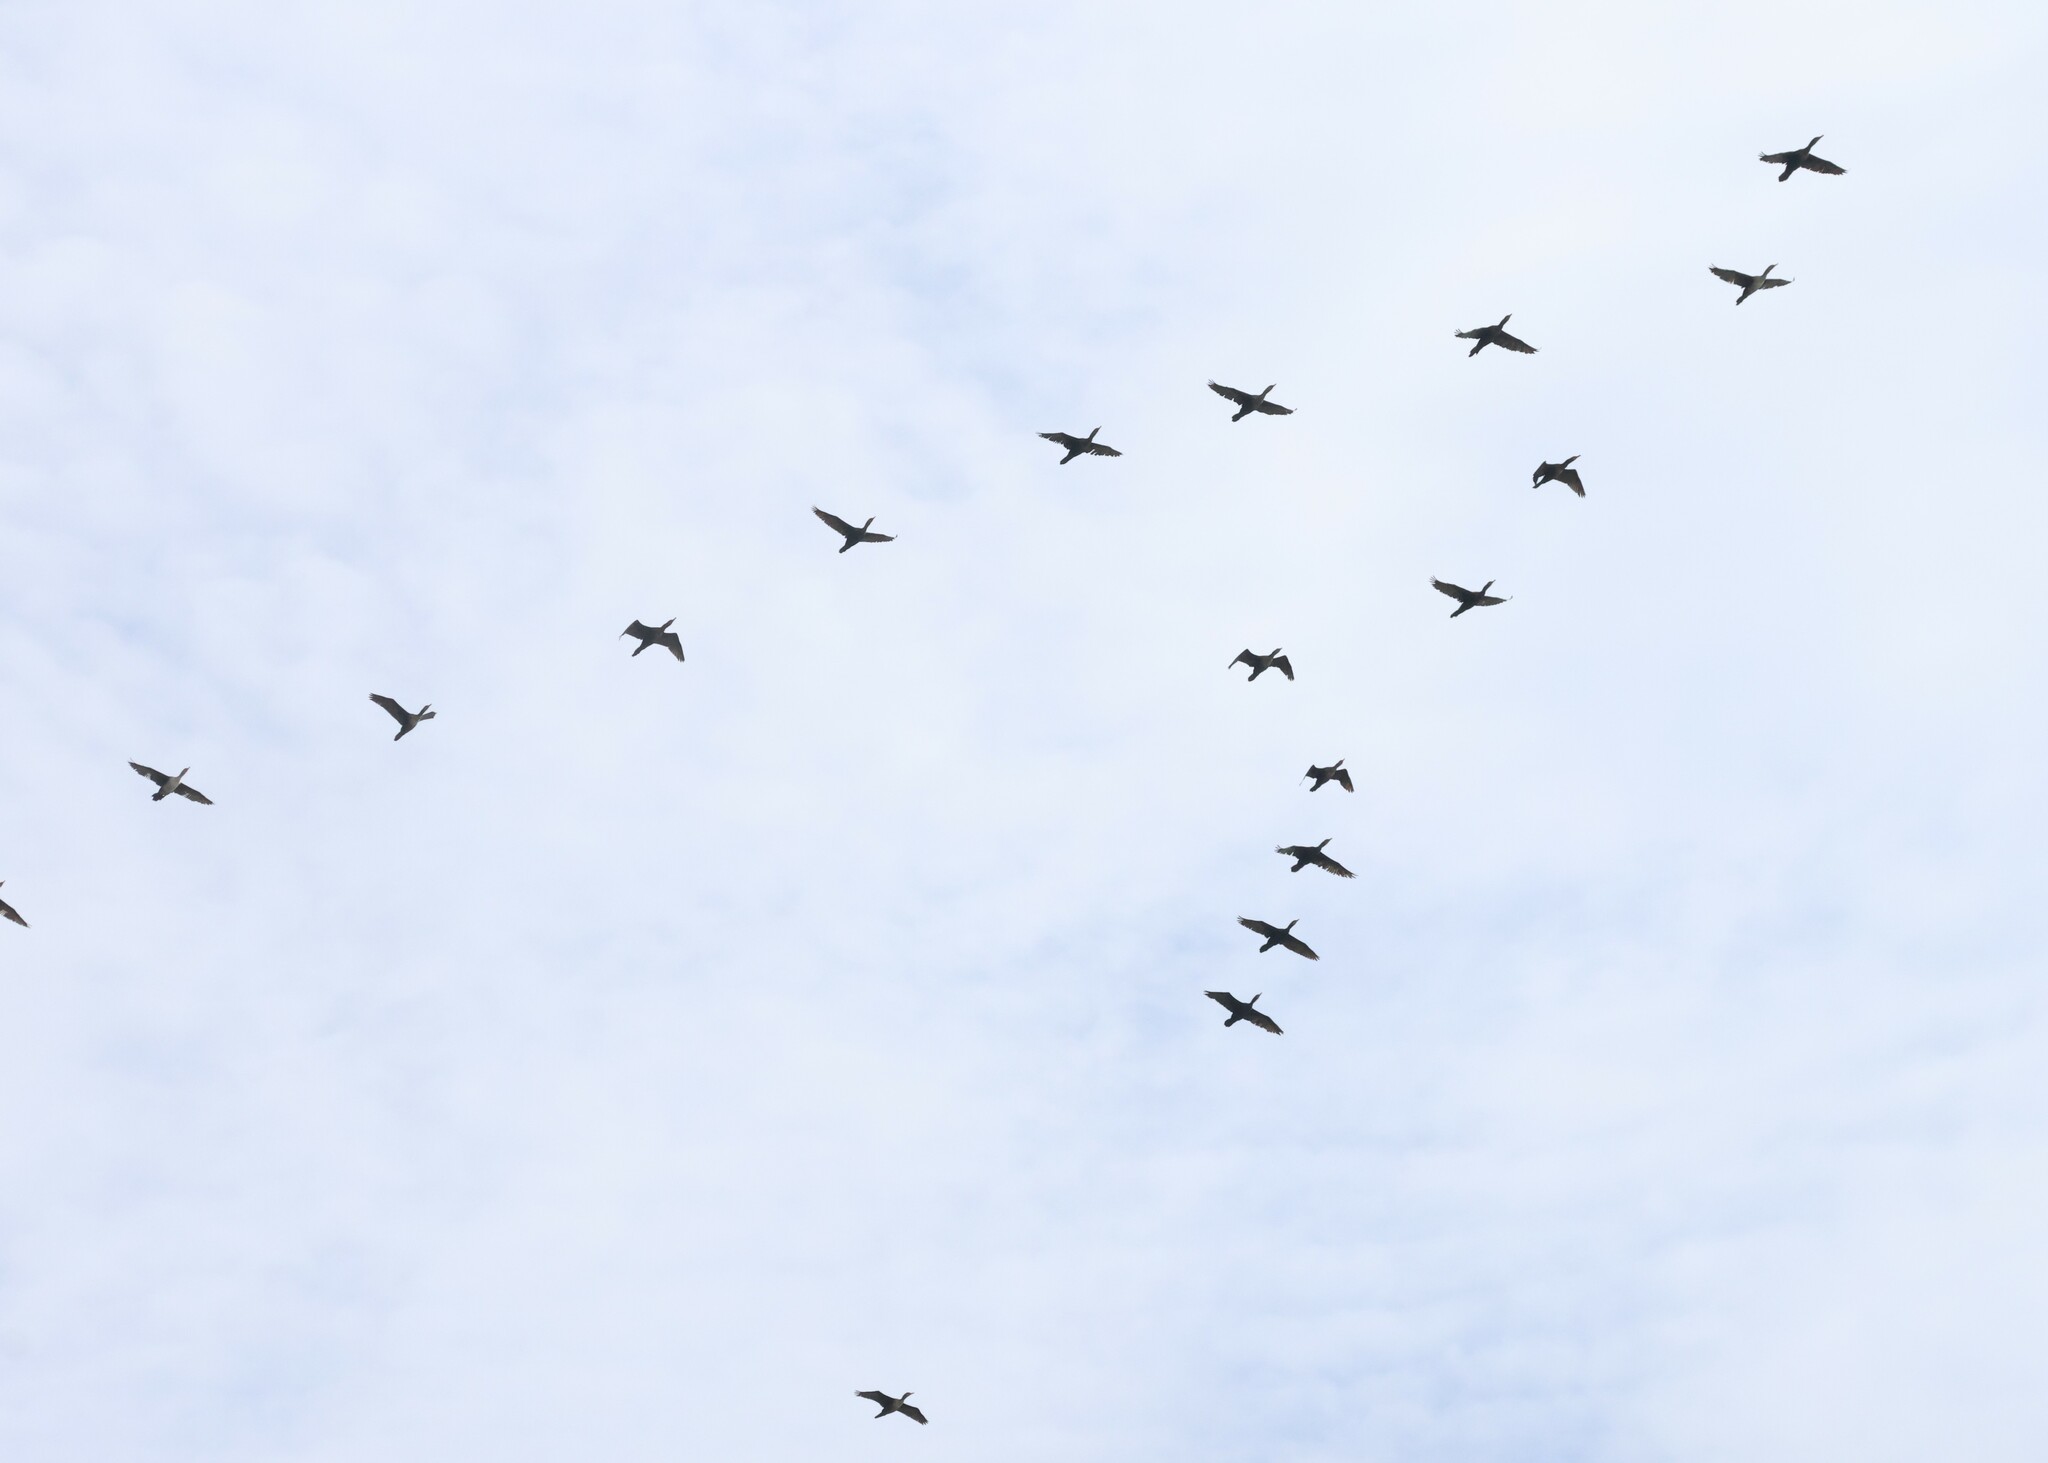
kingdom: Animalia
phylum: Chordata
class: Aves
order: Suliformes
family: Phalacrocoracidae
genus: Phalacrocorax
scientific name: Phalacrocorax auritus
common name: Double-crested cormorant
